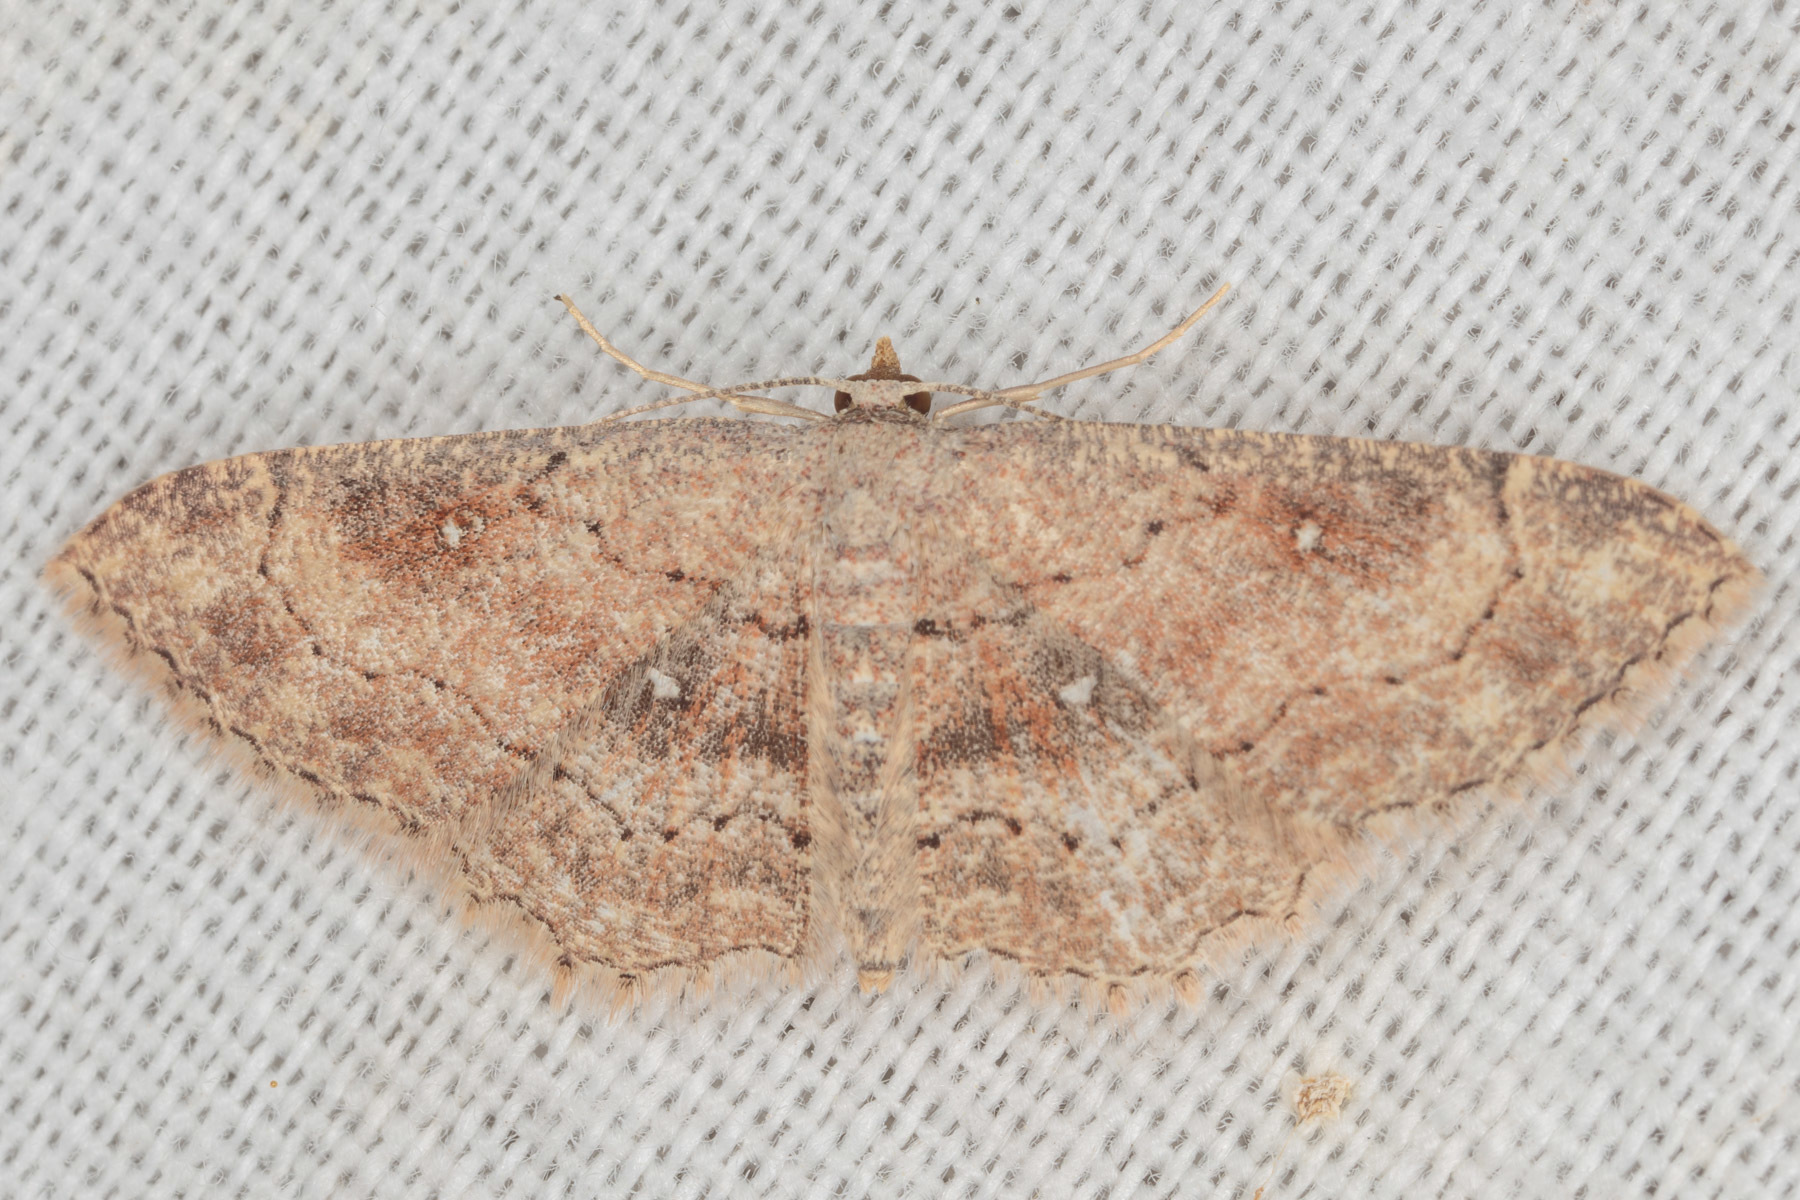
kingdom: Animalia
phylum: Arthropoda
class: Insecta
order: Lepidoptera
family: Geometridae
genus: Cyclophora
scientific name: Cyclophora nanaria
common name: Cankerworm
